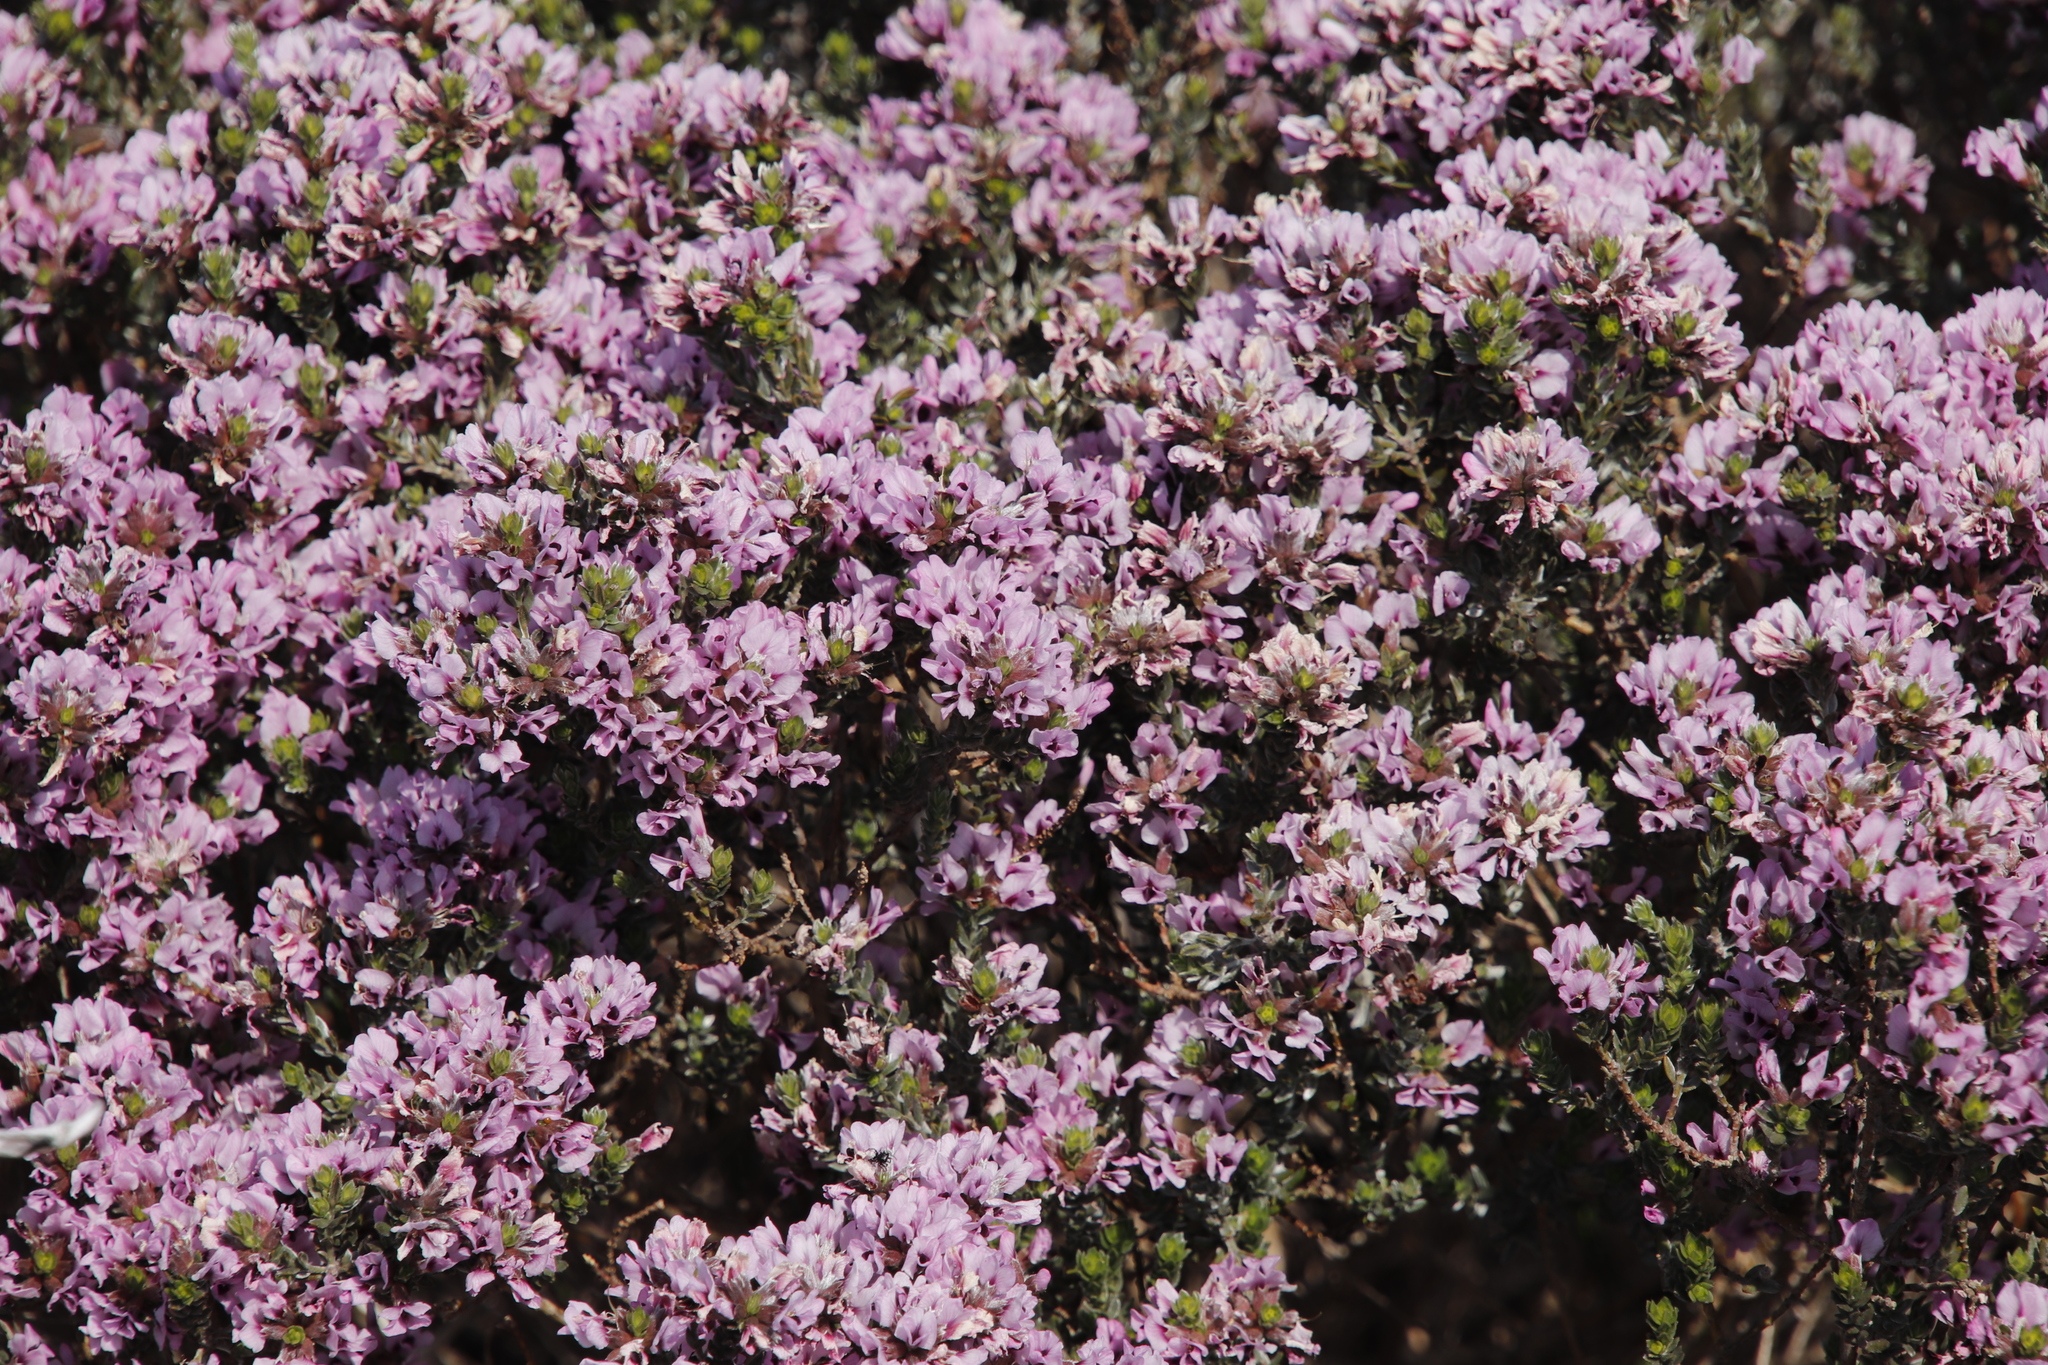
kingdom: Plantae
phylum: Tracheophyta
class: Magnoliopsida
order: Fabales
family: Fabaceae
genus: Amphithalea
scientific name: Amphithalea ericifolia
